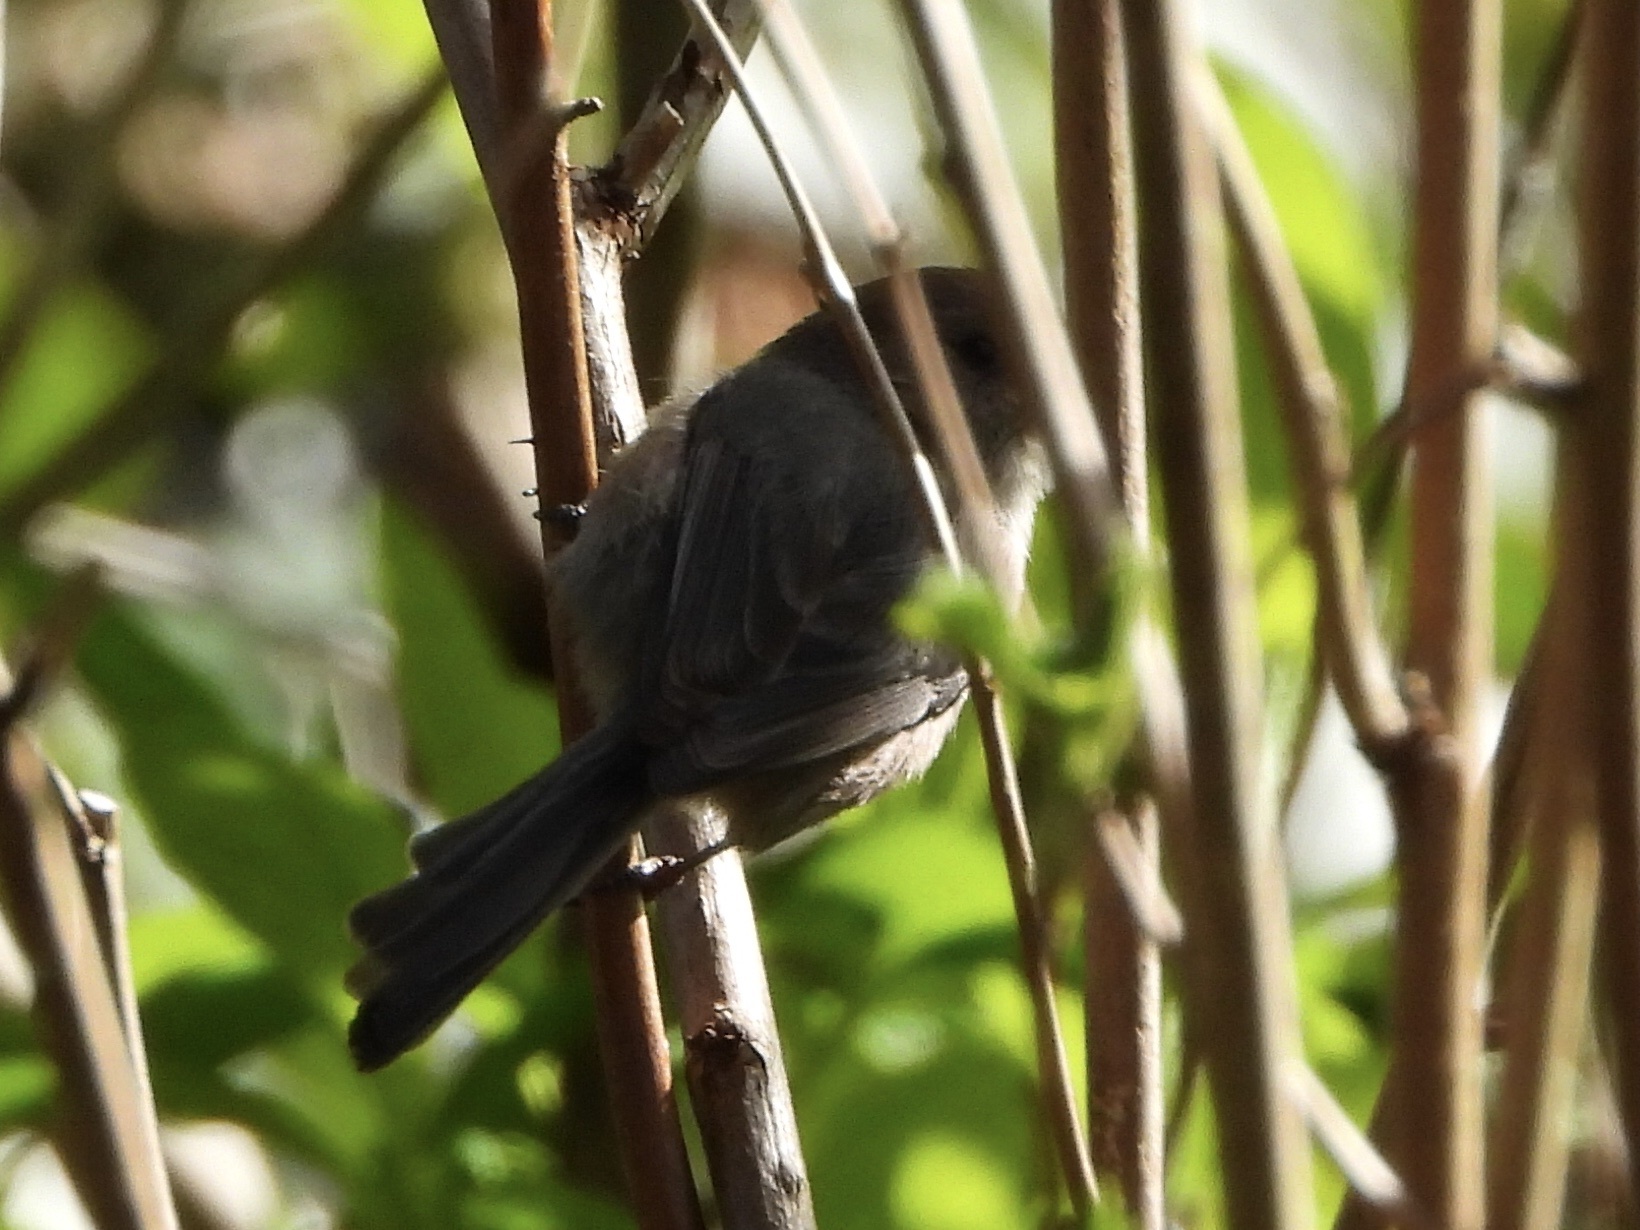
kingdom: Animalia
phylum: Chordata
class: Aves
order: Passeriformes
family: Aegithalidae
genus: Psaltriparus
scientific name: Psaltriparus minimus
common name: American bushtit
